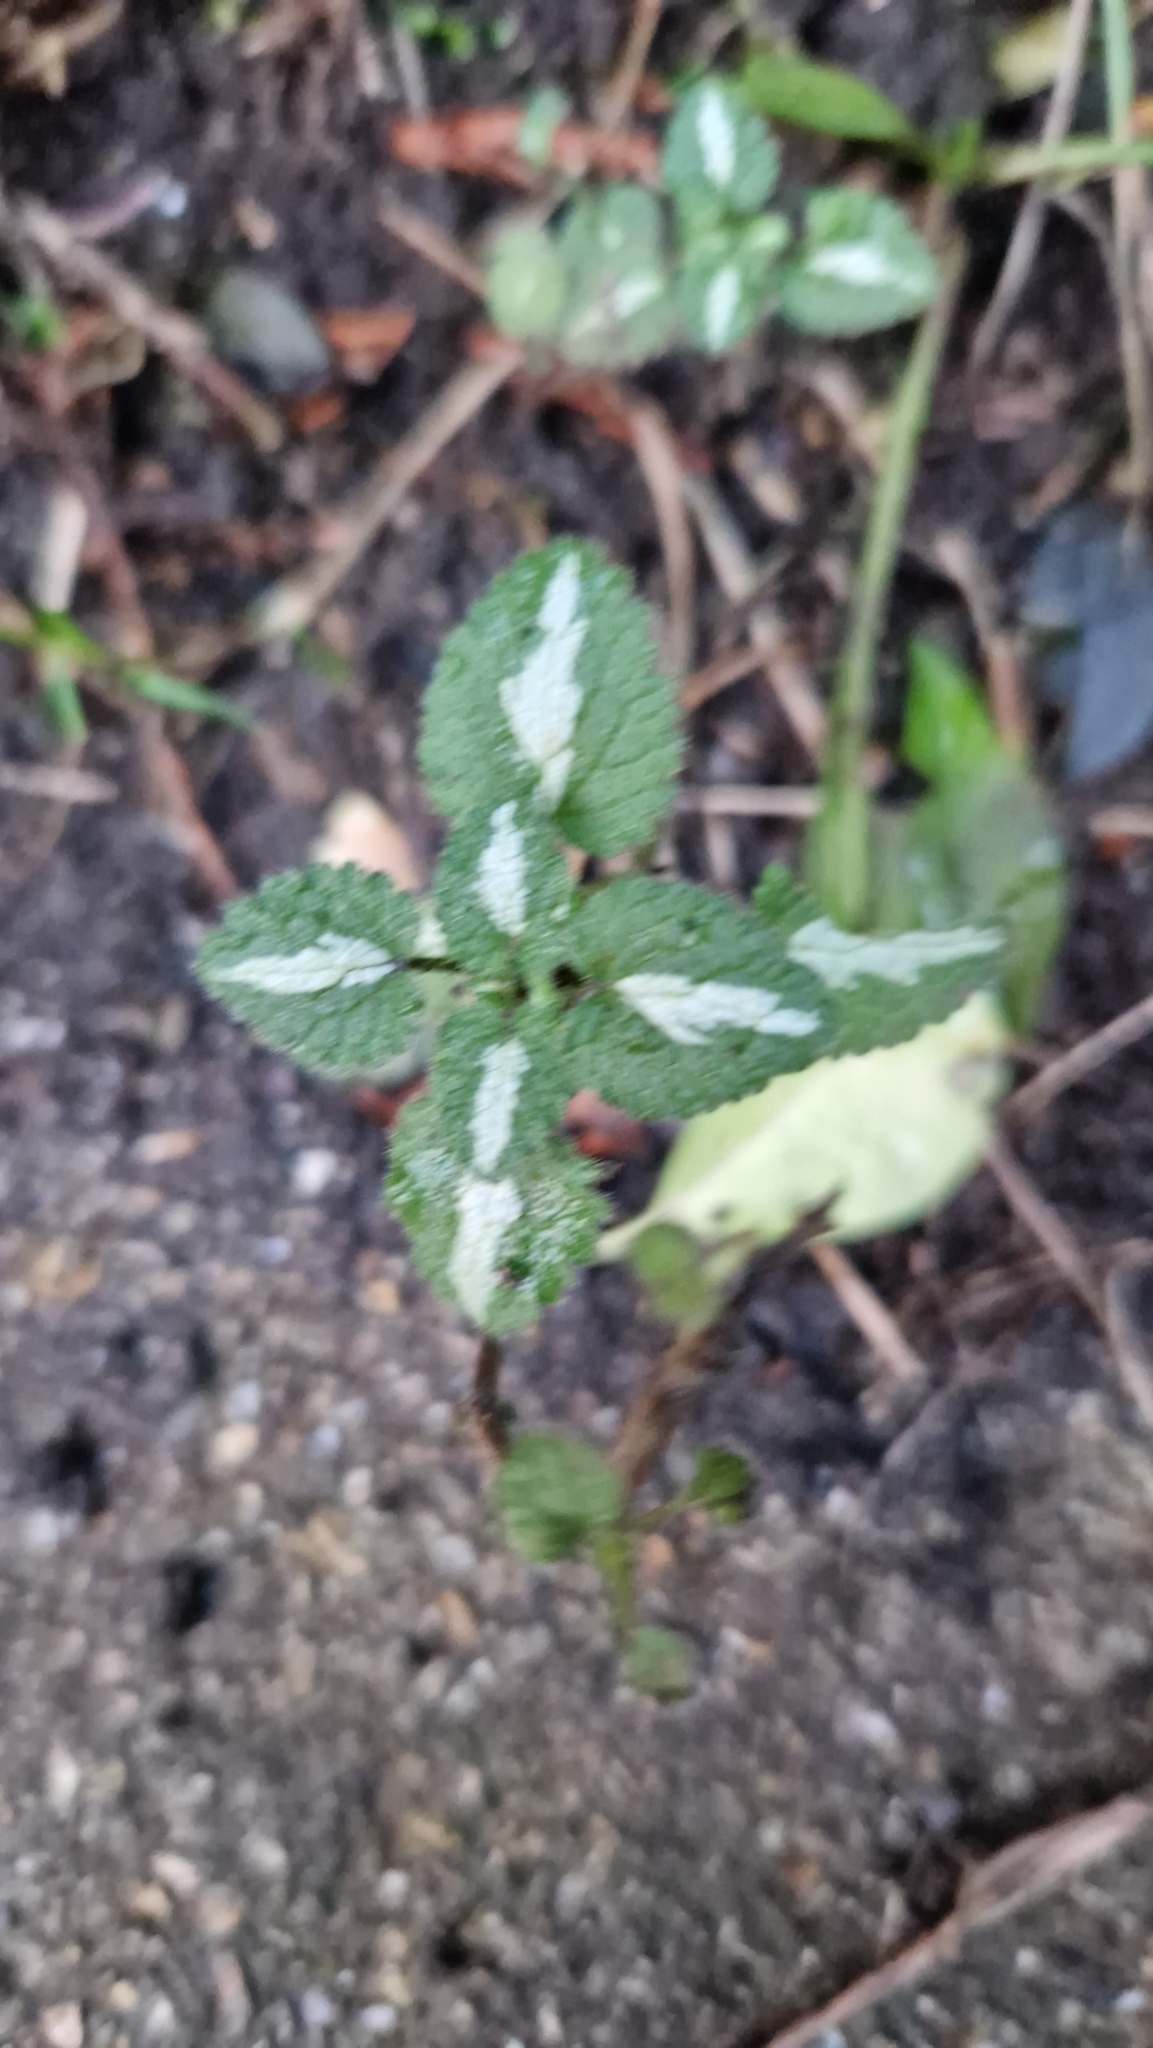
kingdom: Plantae
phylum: Tracheophyta
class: Magnoliopsida
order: Lamiales
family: Lamiaceae
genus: Lamium
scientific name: Lamium maculatum
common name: Spotted dead-nettle
